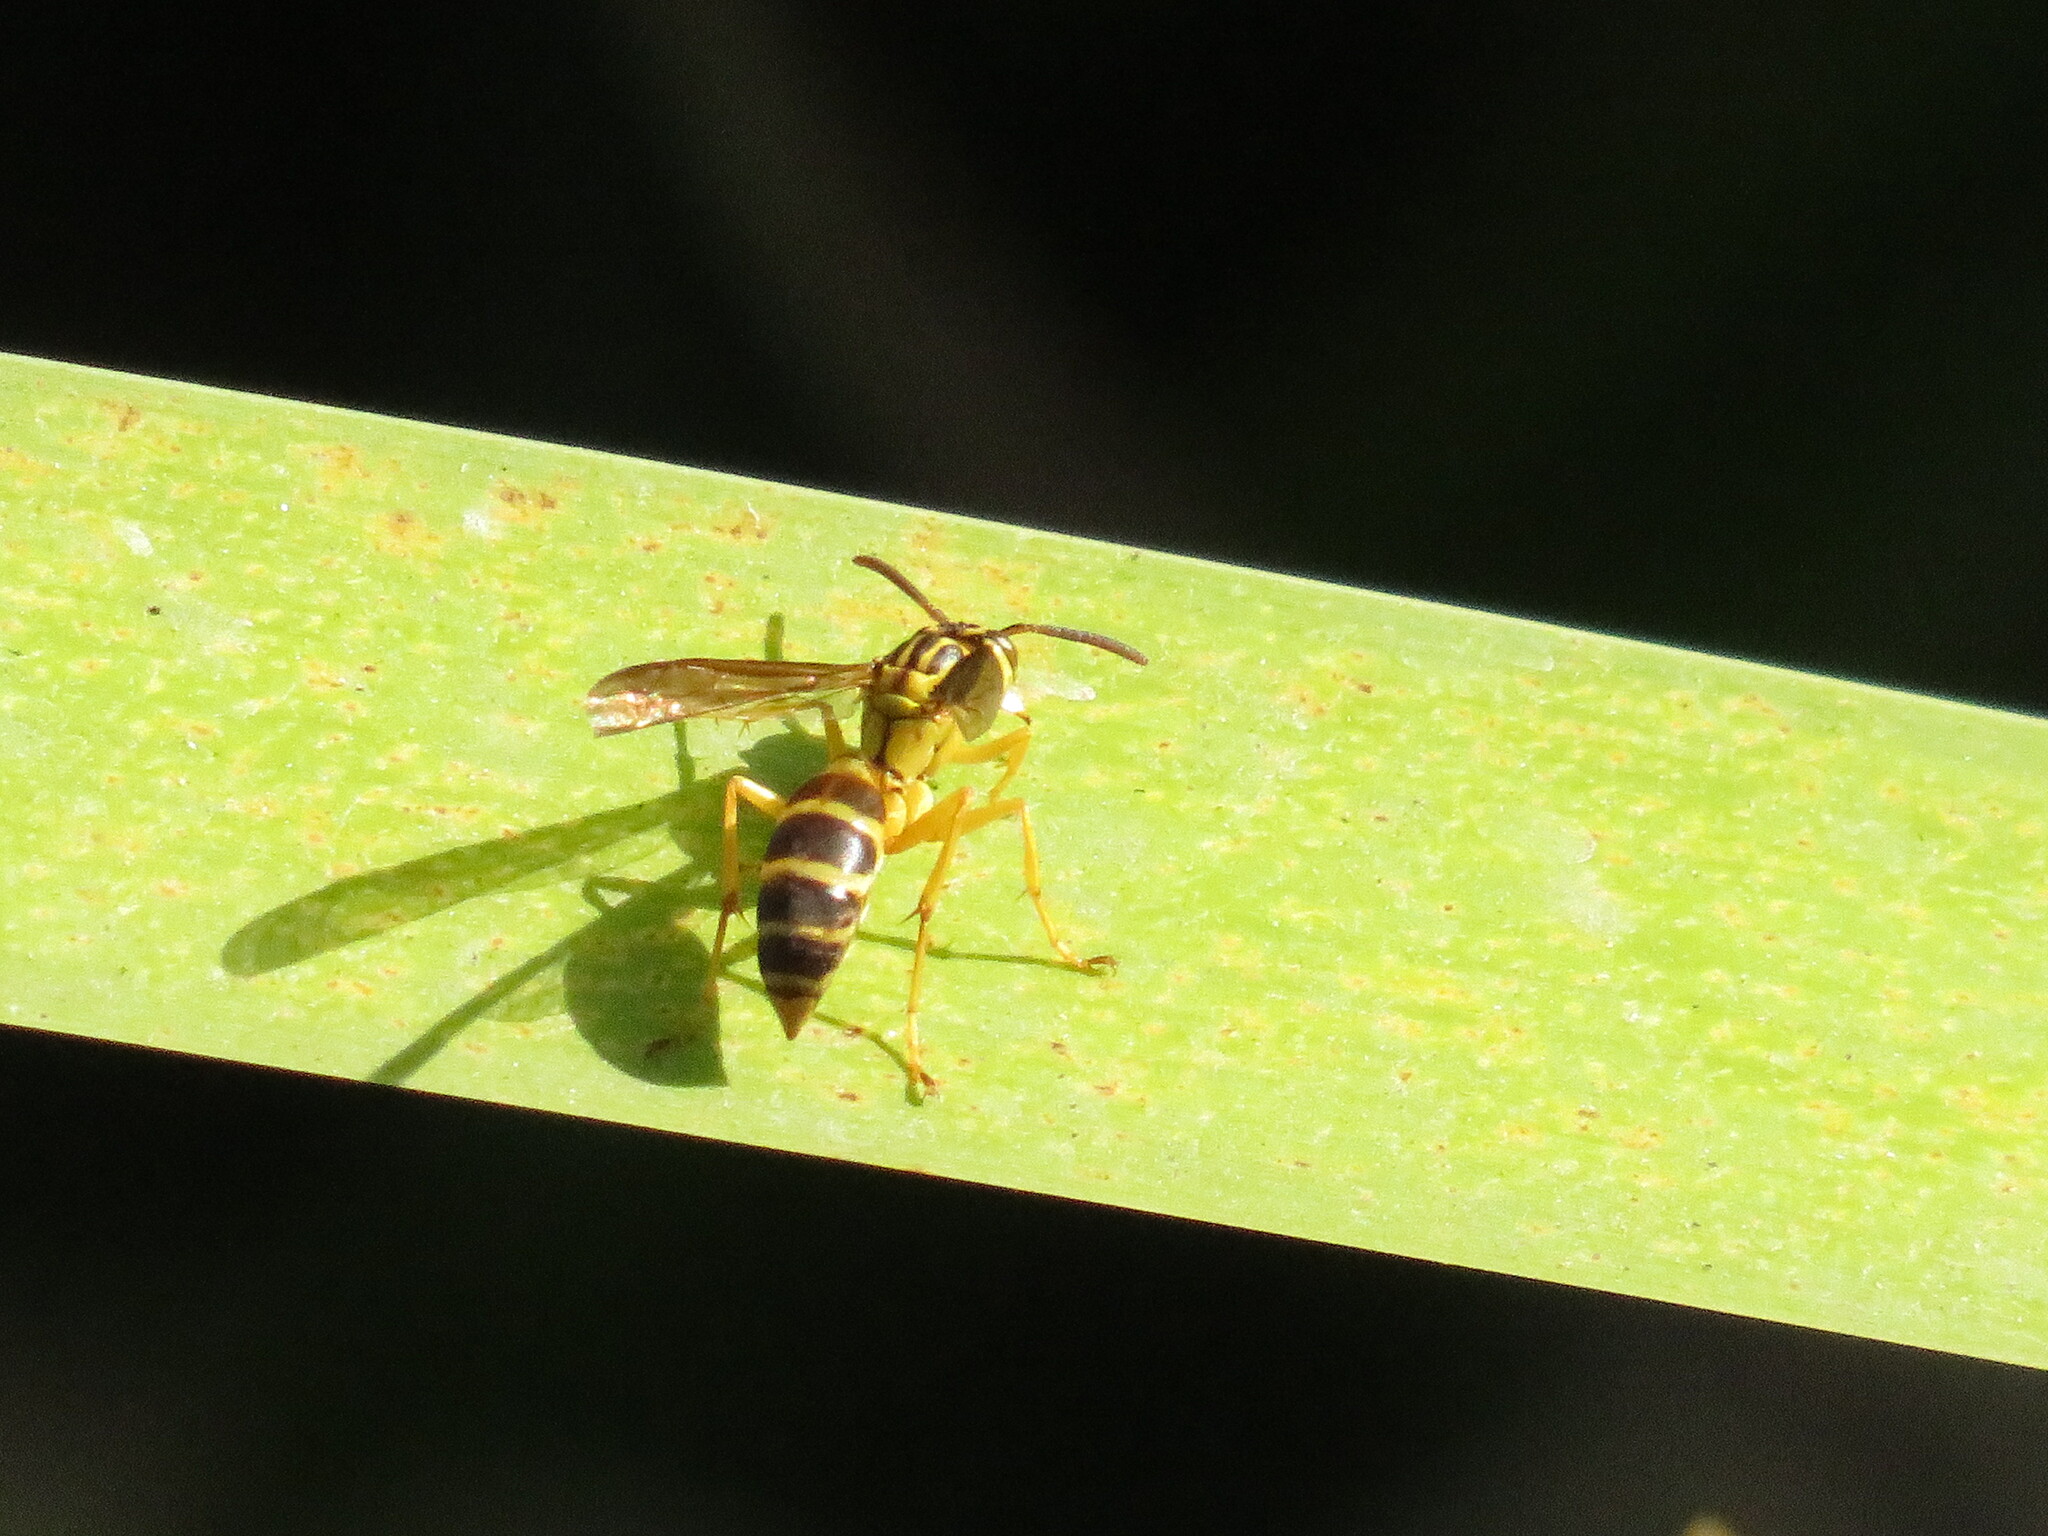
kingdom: Animalia
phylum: Arthropoda
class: Insecta
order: Hymenoptera
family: Vespidae
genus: Agelaia
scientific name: Agelaia
